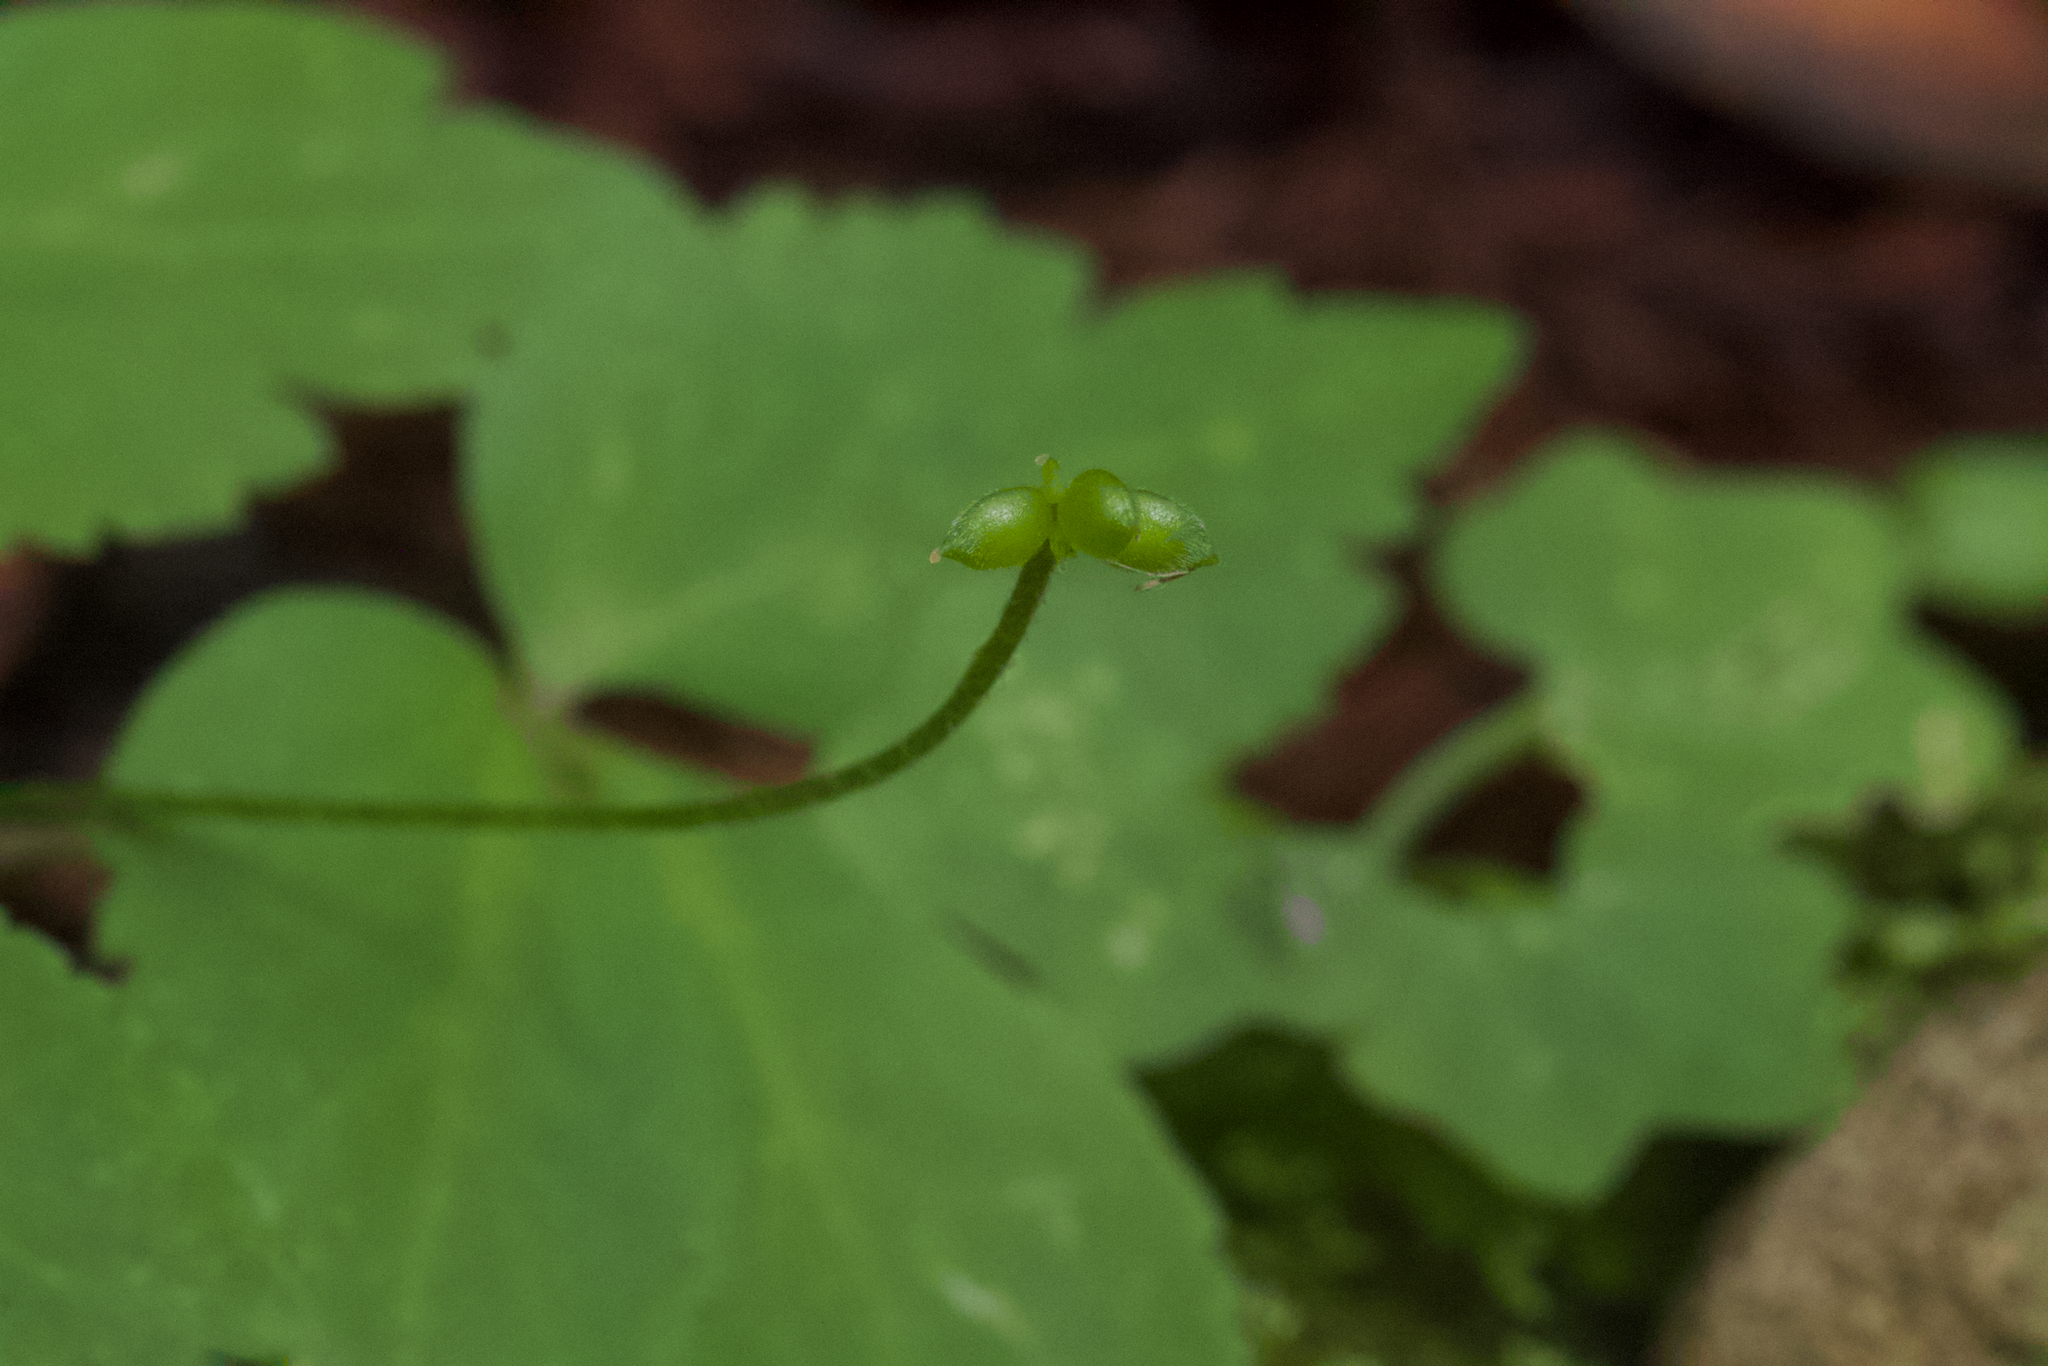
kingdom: Plantae
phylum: Tracheophyta
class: Magnoliopsida
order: Ranunculales
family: Ranunculaceae
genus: Anemone
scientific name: Anemone
